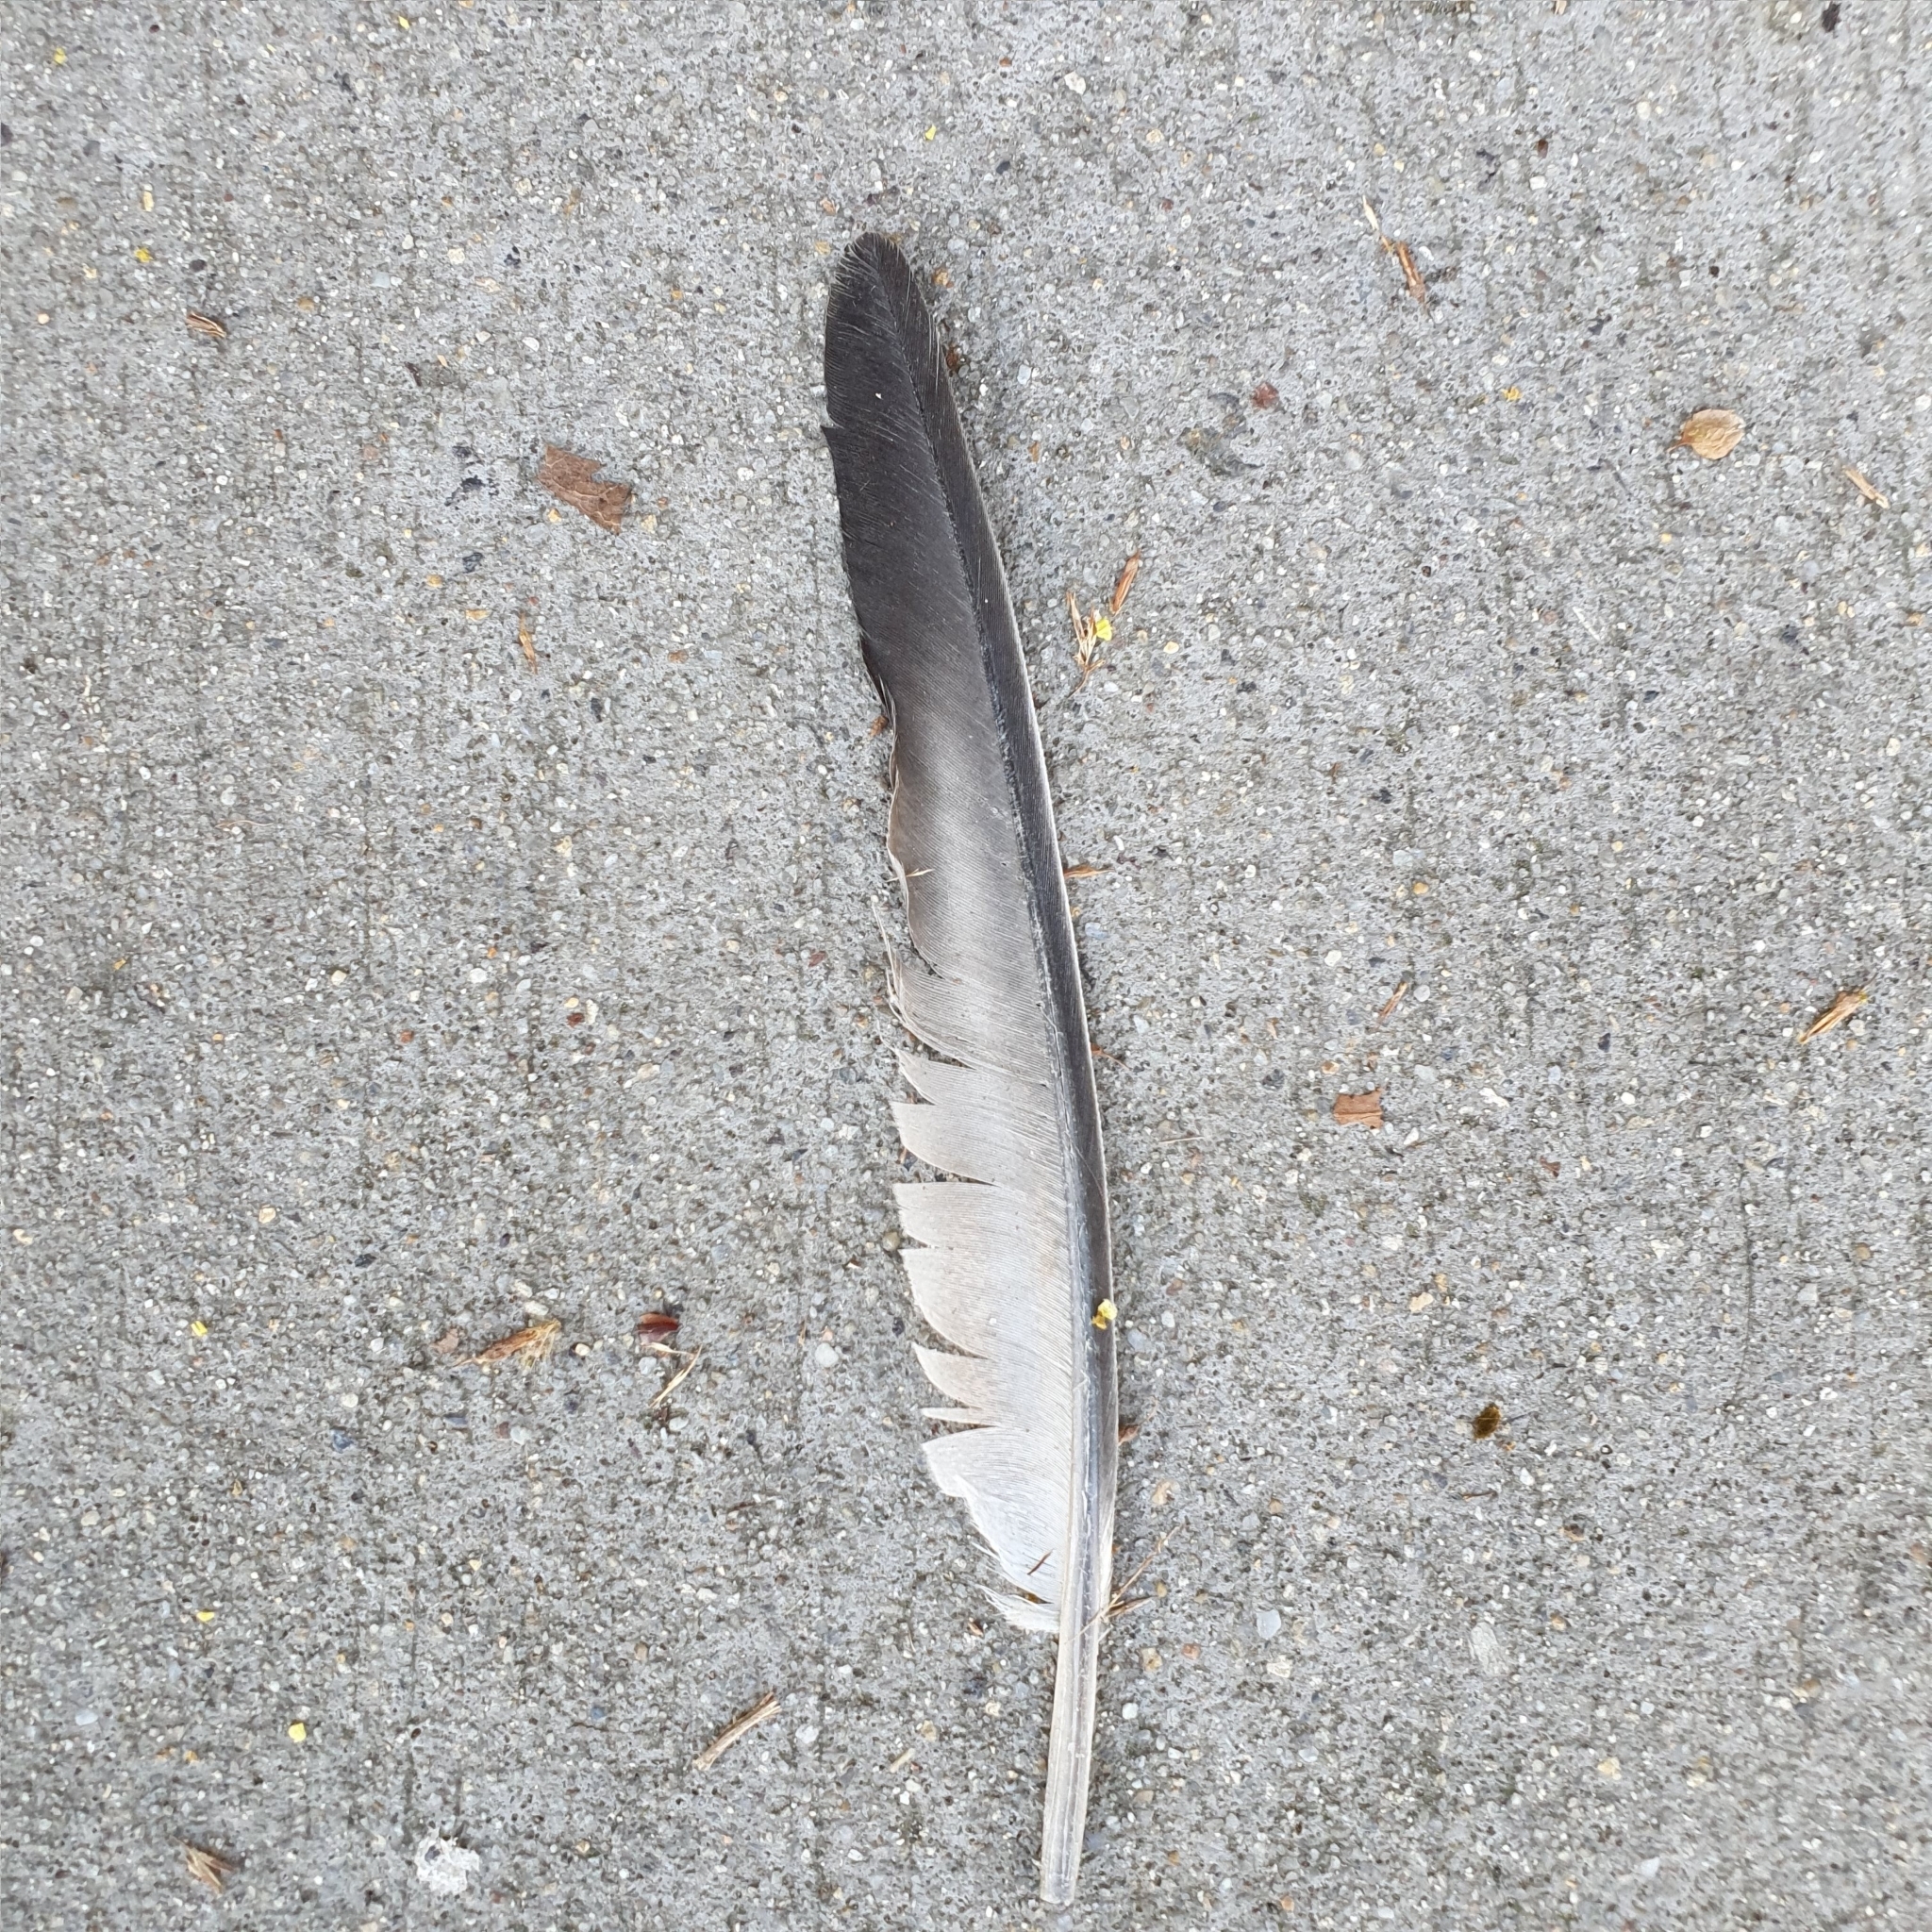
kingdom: Animalia
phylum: Chordata
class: Aves
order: Columbiformes
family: Columbidae
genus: Columba
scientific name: Columba livia
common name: Rock pigeon
